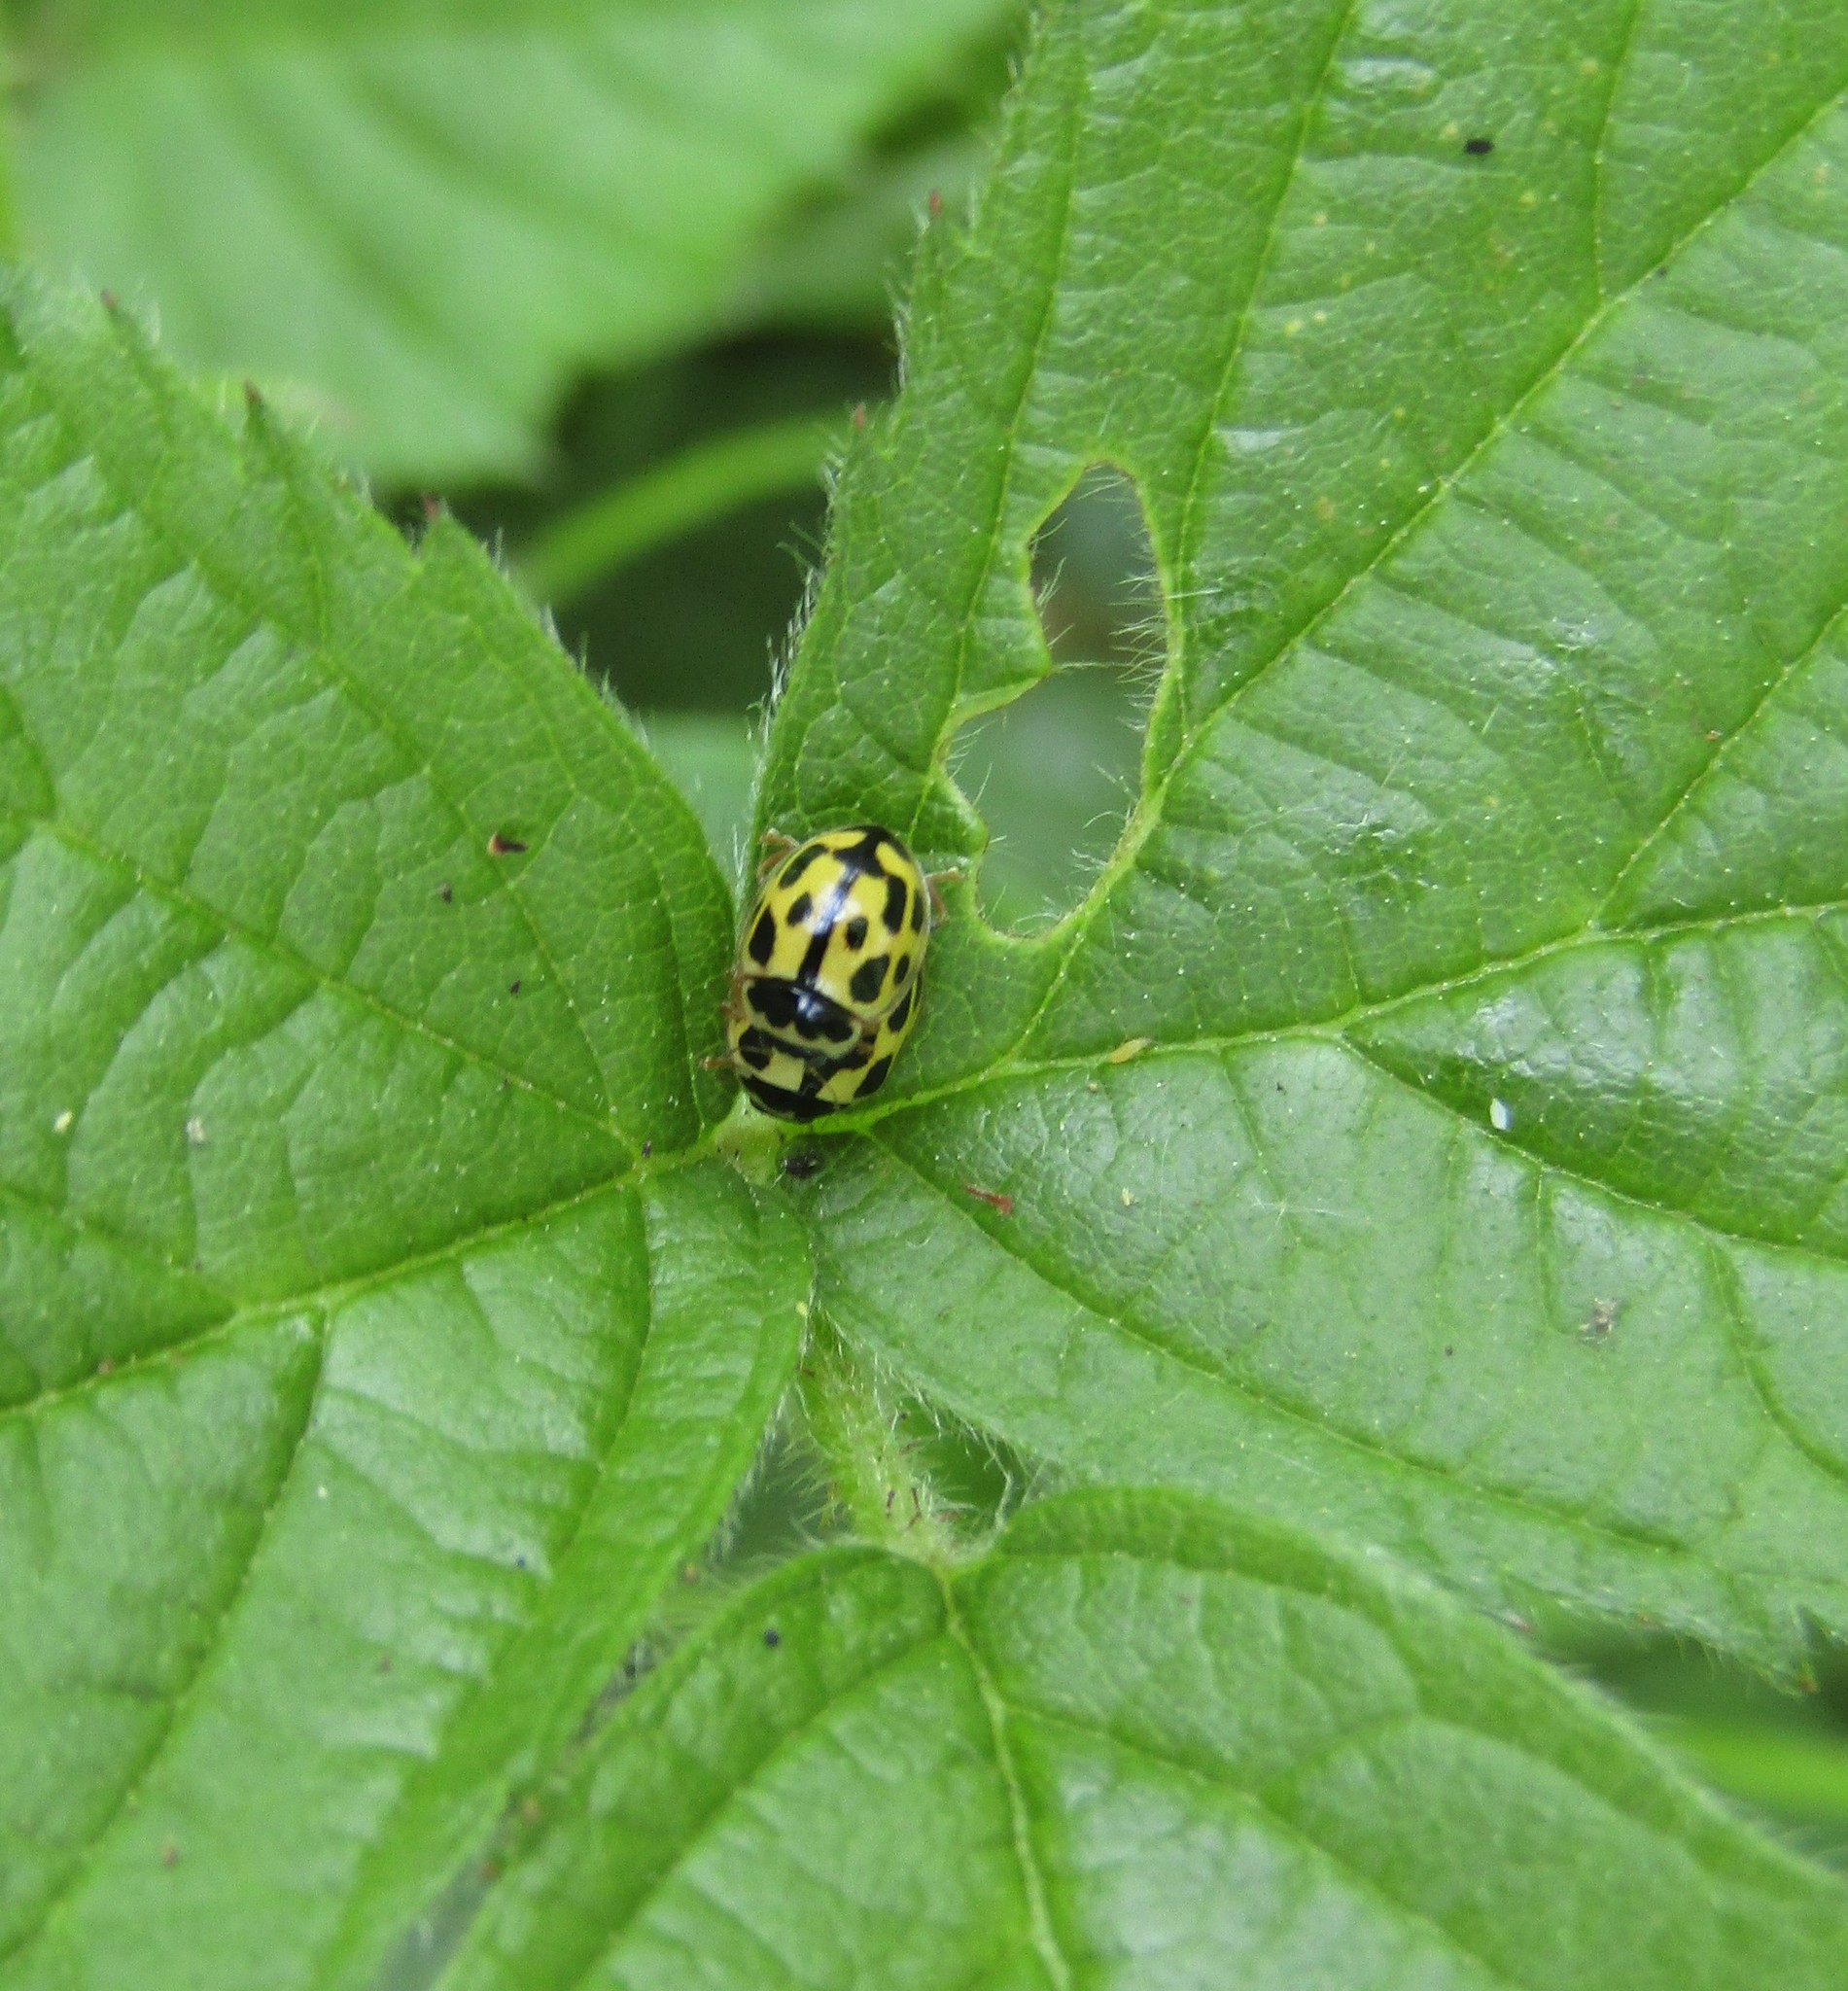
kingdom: Animalia
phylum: Arthropoda
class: Insecta
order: Coleoptera
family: Coccinellidae
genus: Propylaea
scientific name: Propylaea quatuordecimpunctata
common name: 14-spotted ladybird beetle
